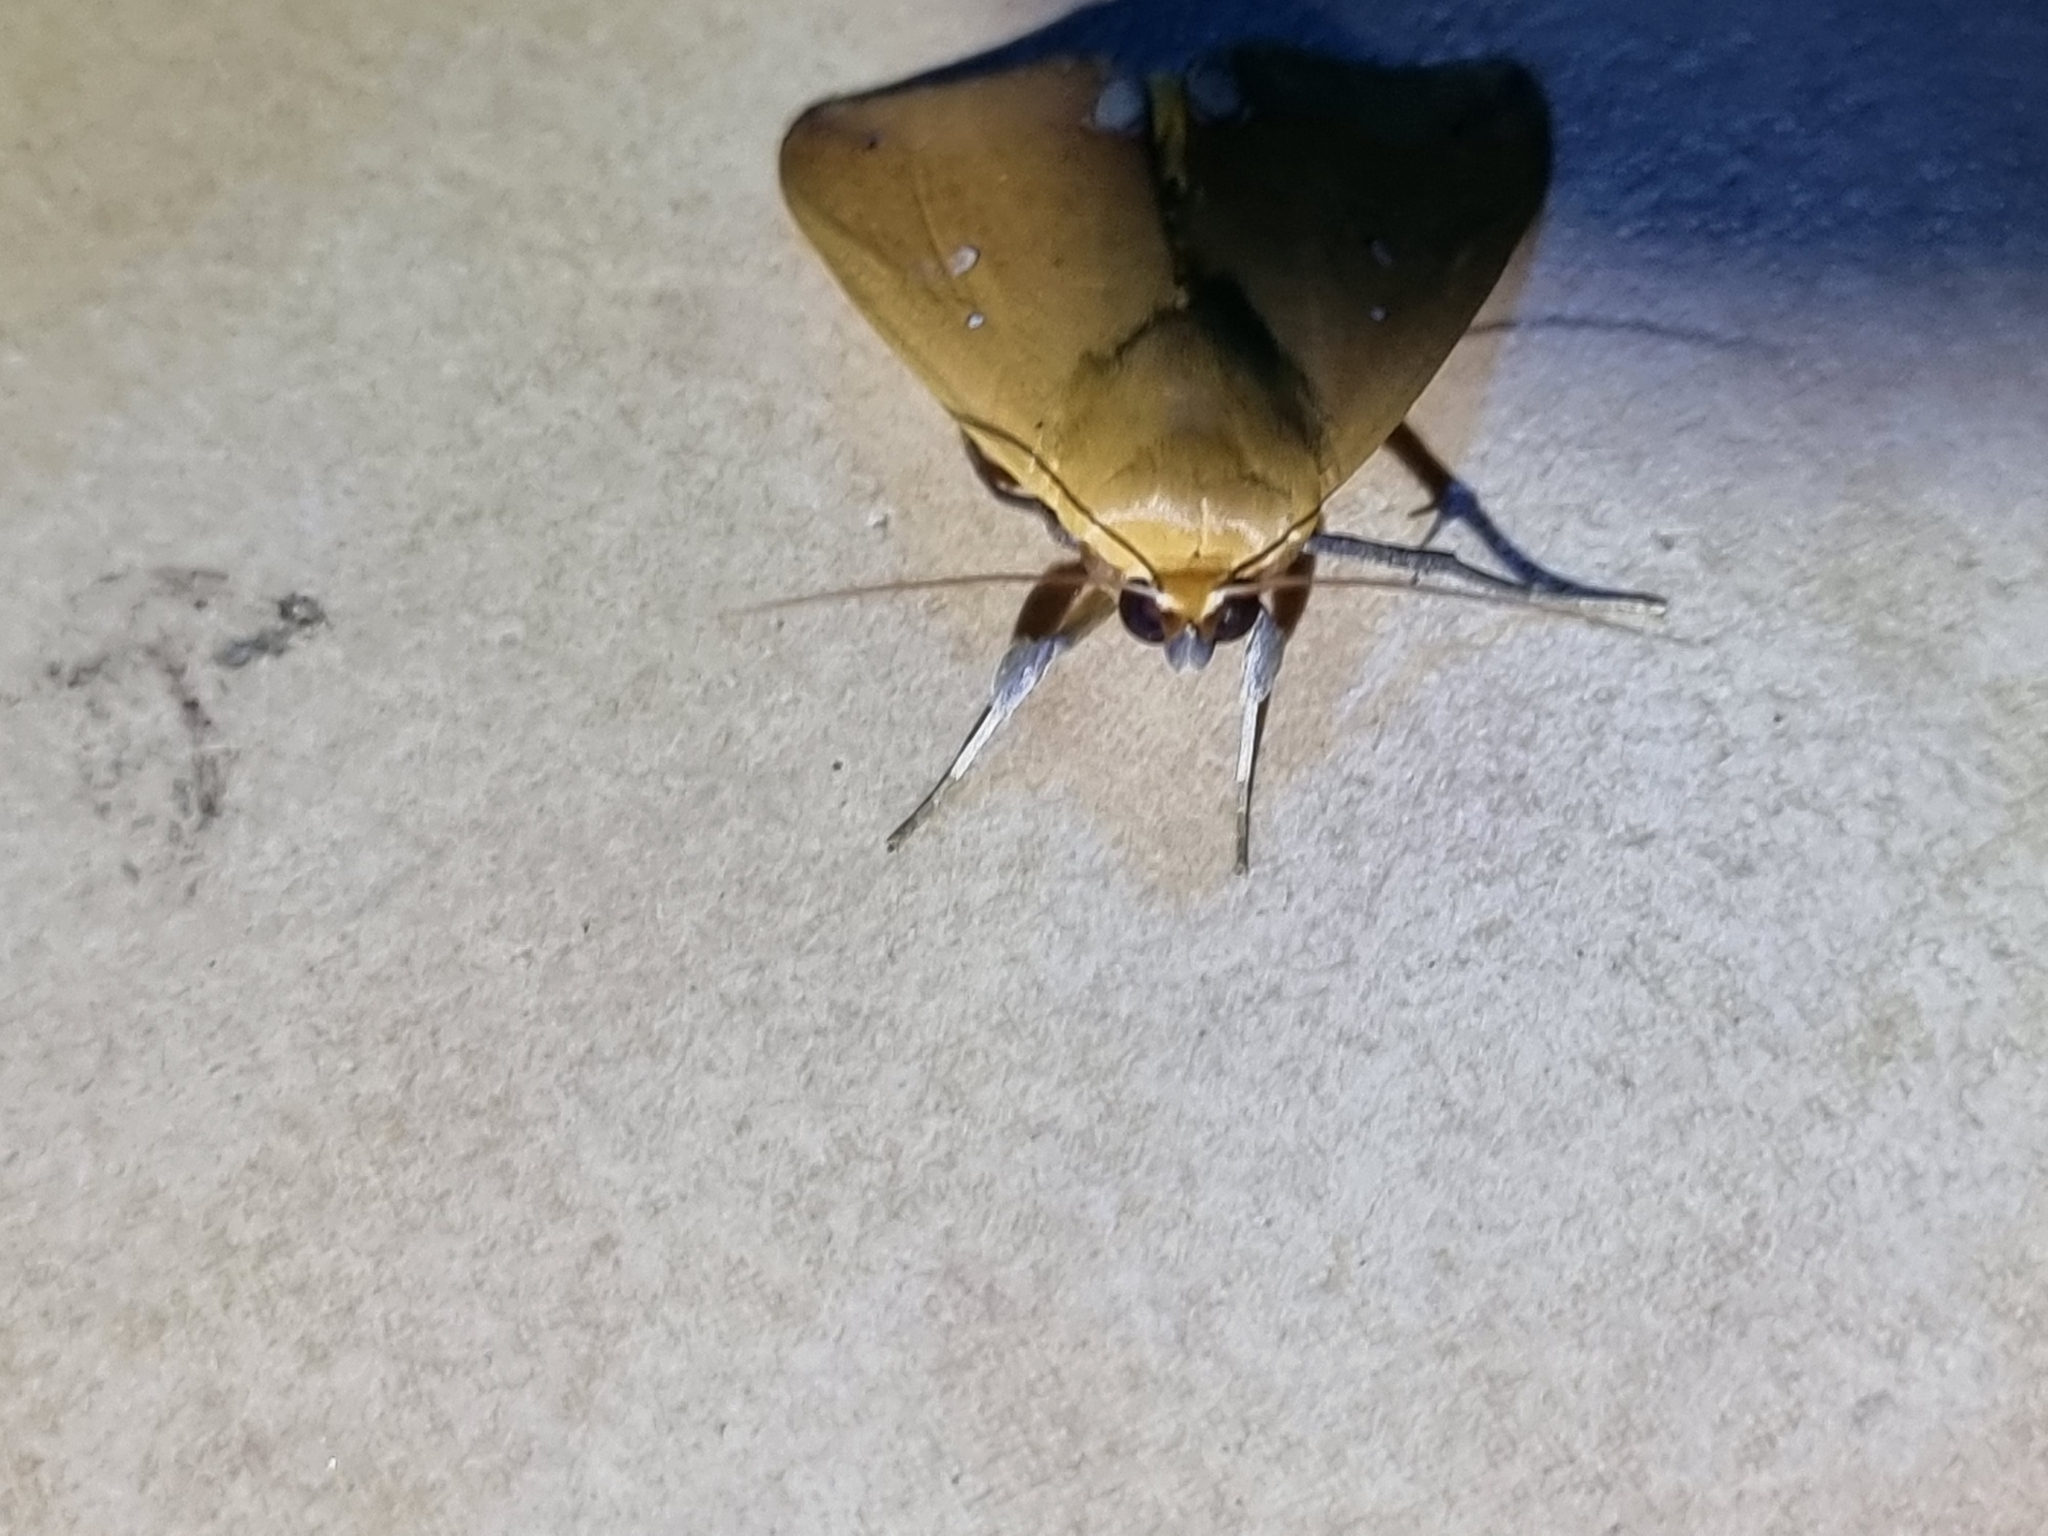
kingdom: Animalia
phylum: Arthropoda
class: Insecta
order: Lepidoptera
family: Erebidae
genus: Ophiusa
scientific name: Ophiusa discriminans
